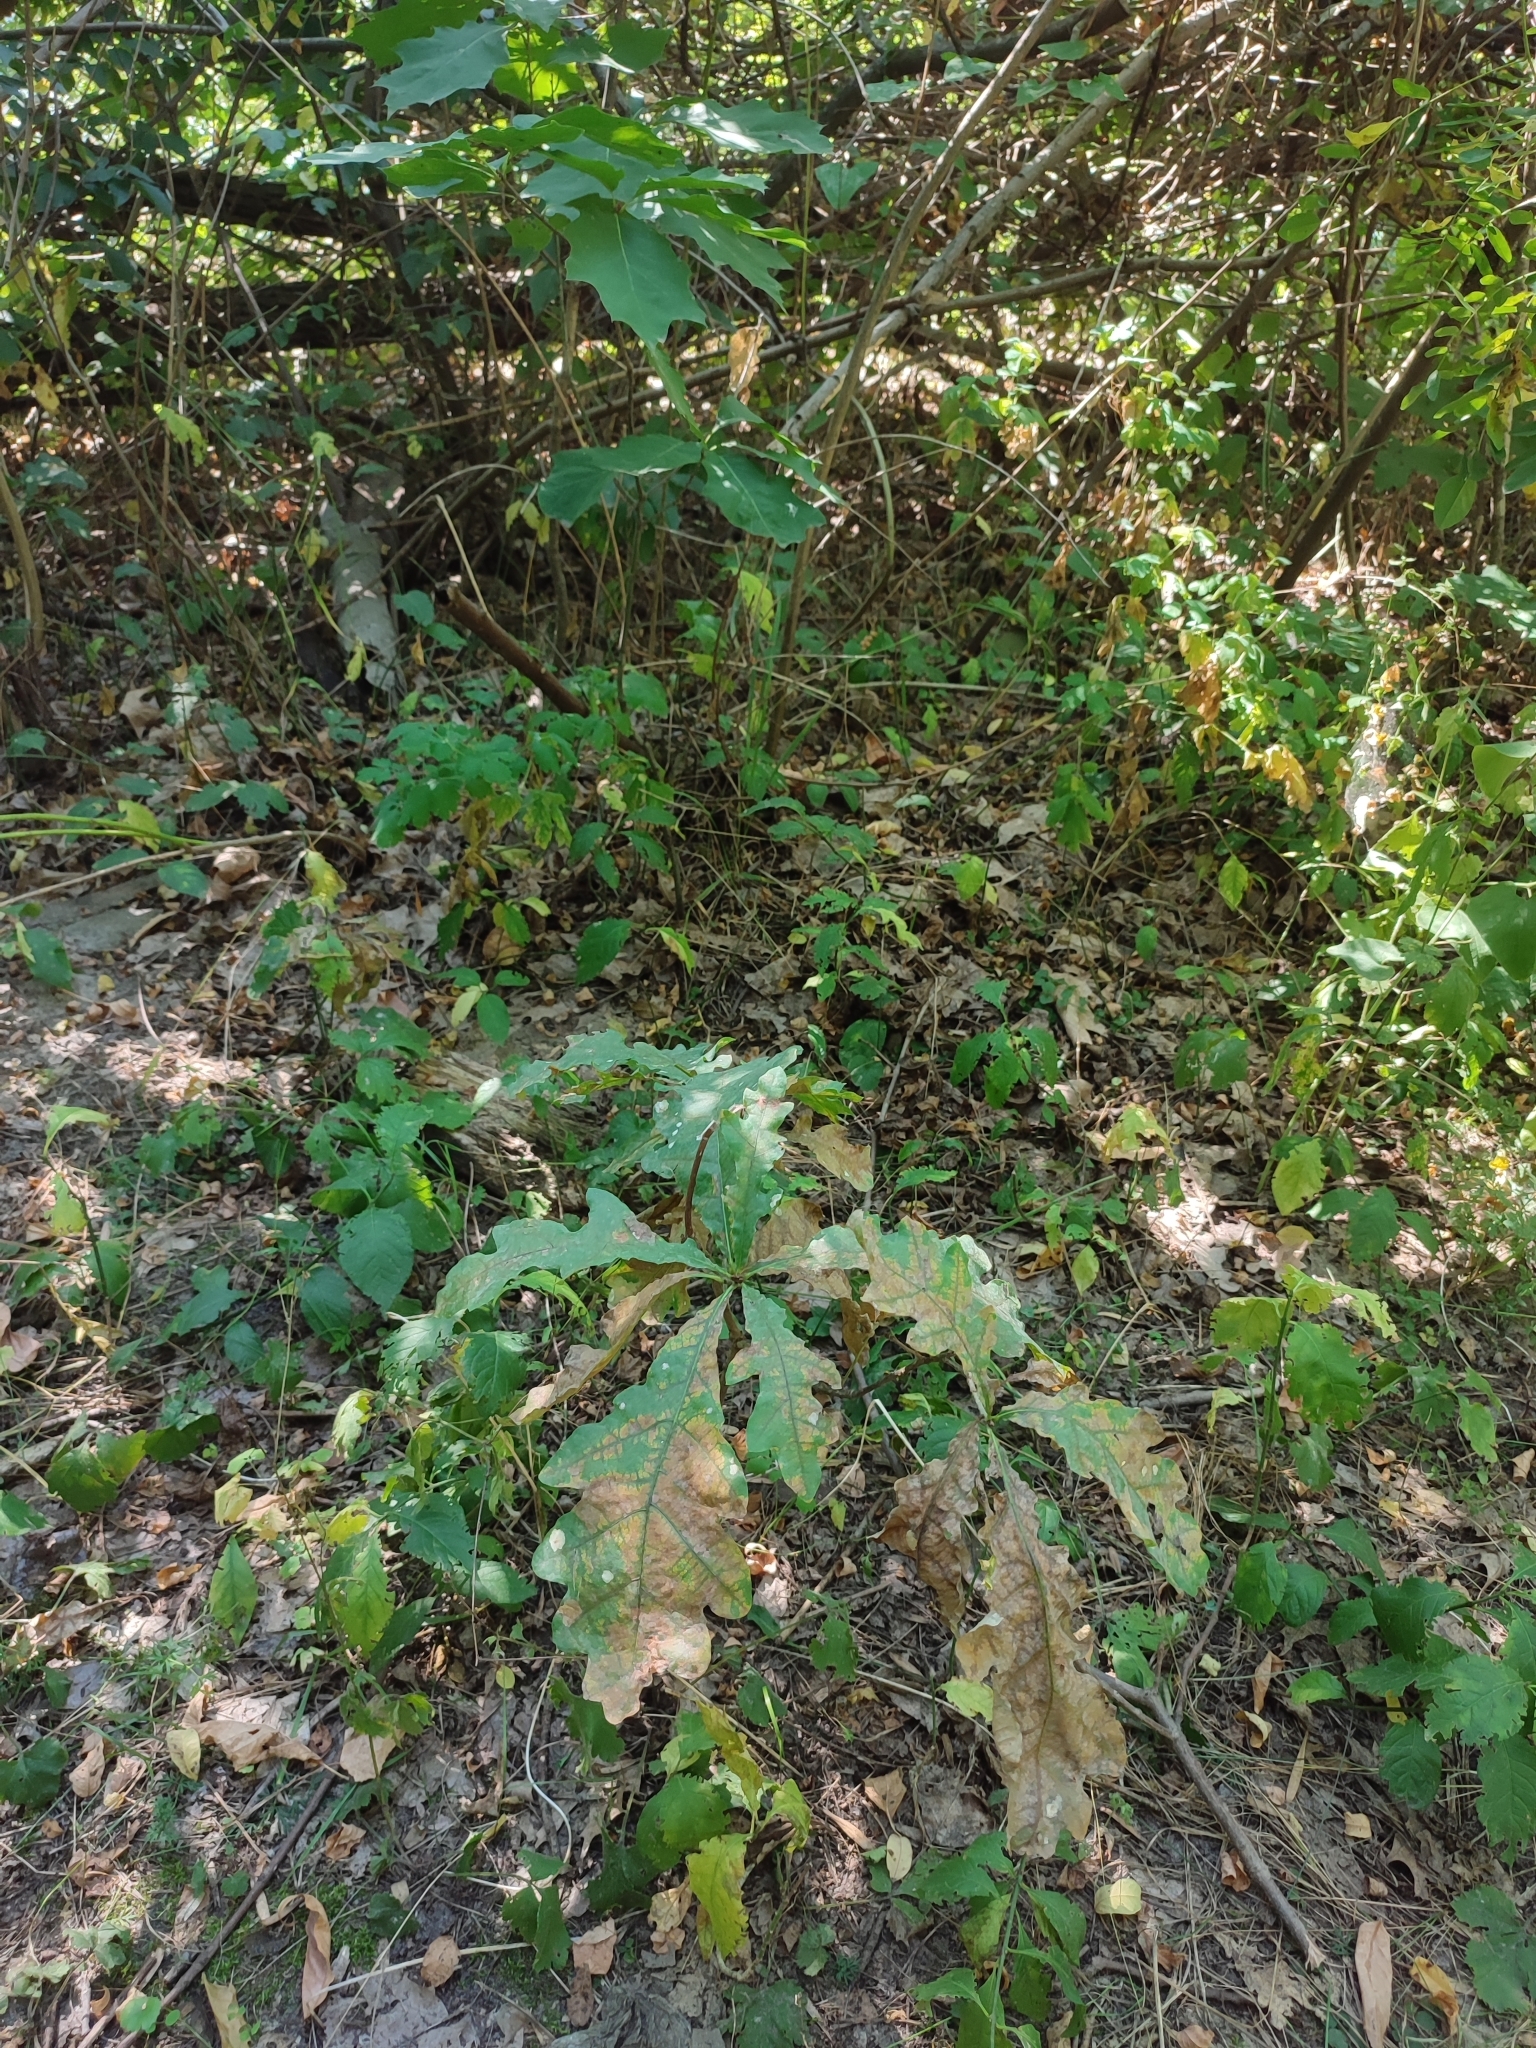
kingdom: Plantae
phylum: Tracheophyta
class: Magnoliopsida
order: Fagales
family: Fagaceae
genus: Quercus
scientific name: Quercus robur
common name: Pedunculate oak
